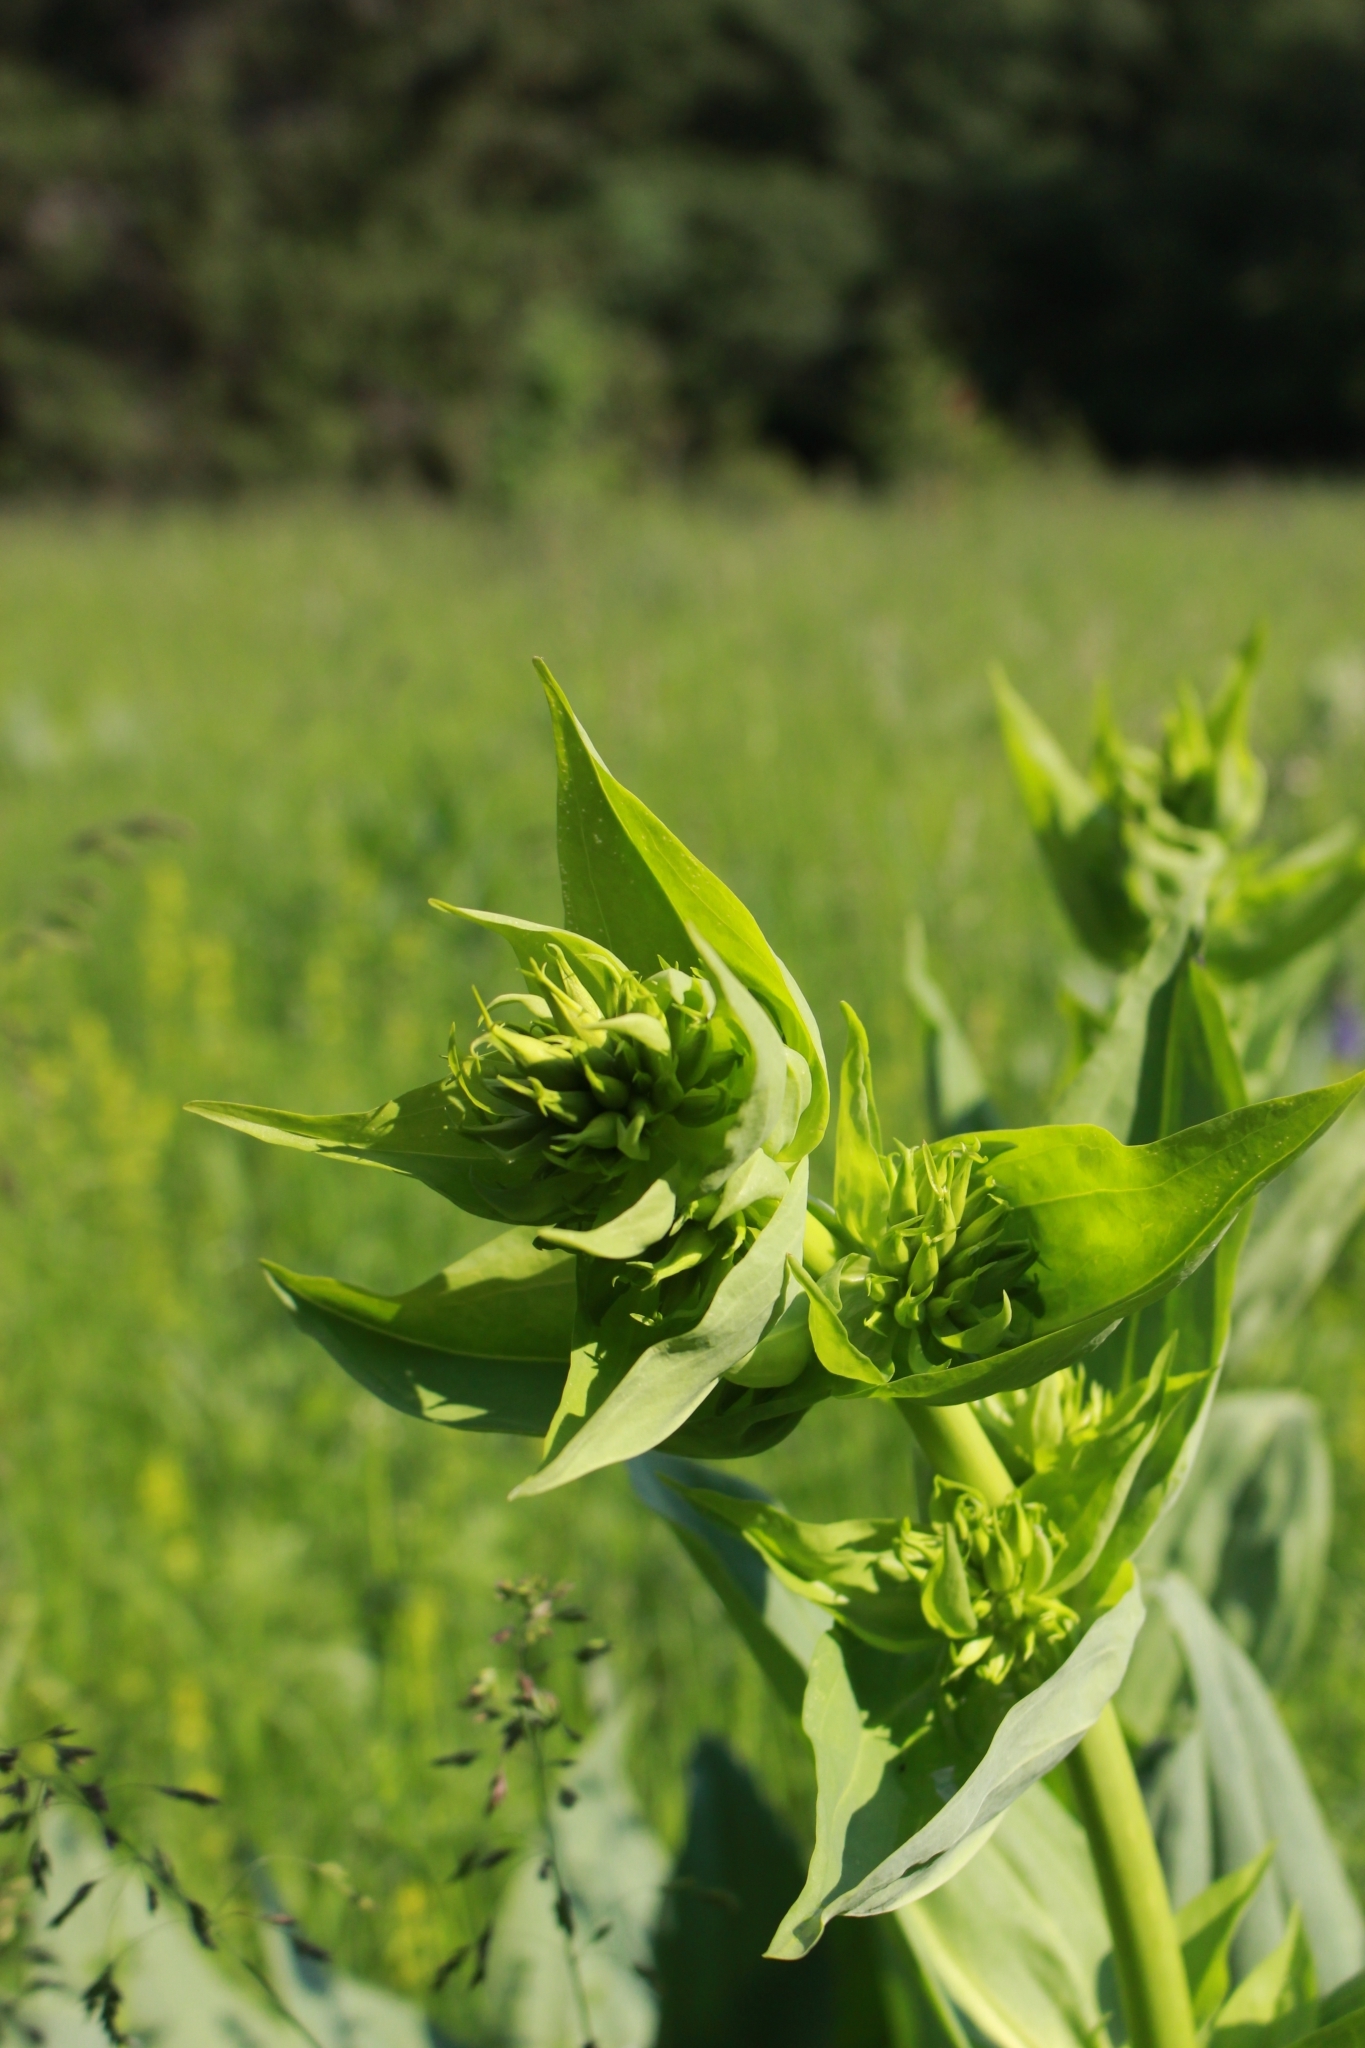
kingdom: Plantae
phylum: Tracheophyta
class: Magnoliopsida
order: Gentianales
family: Gentianaceae
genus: Gentiana
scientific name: Gentiana lutea
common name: Great yellow gentian
